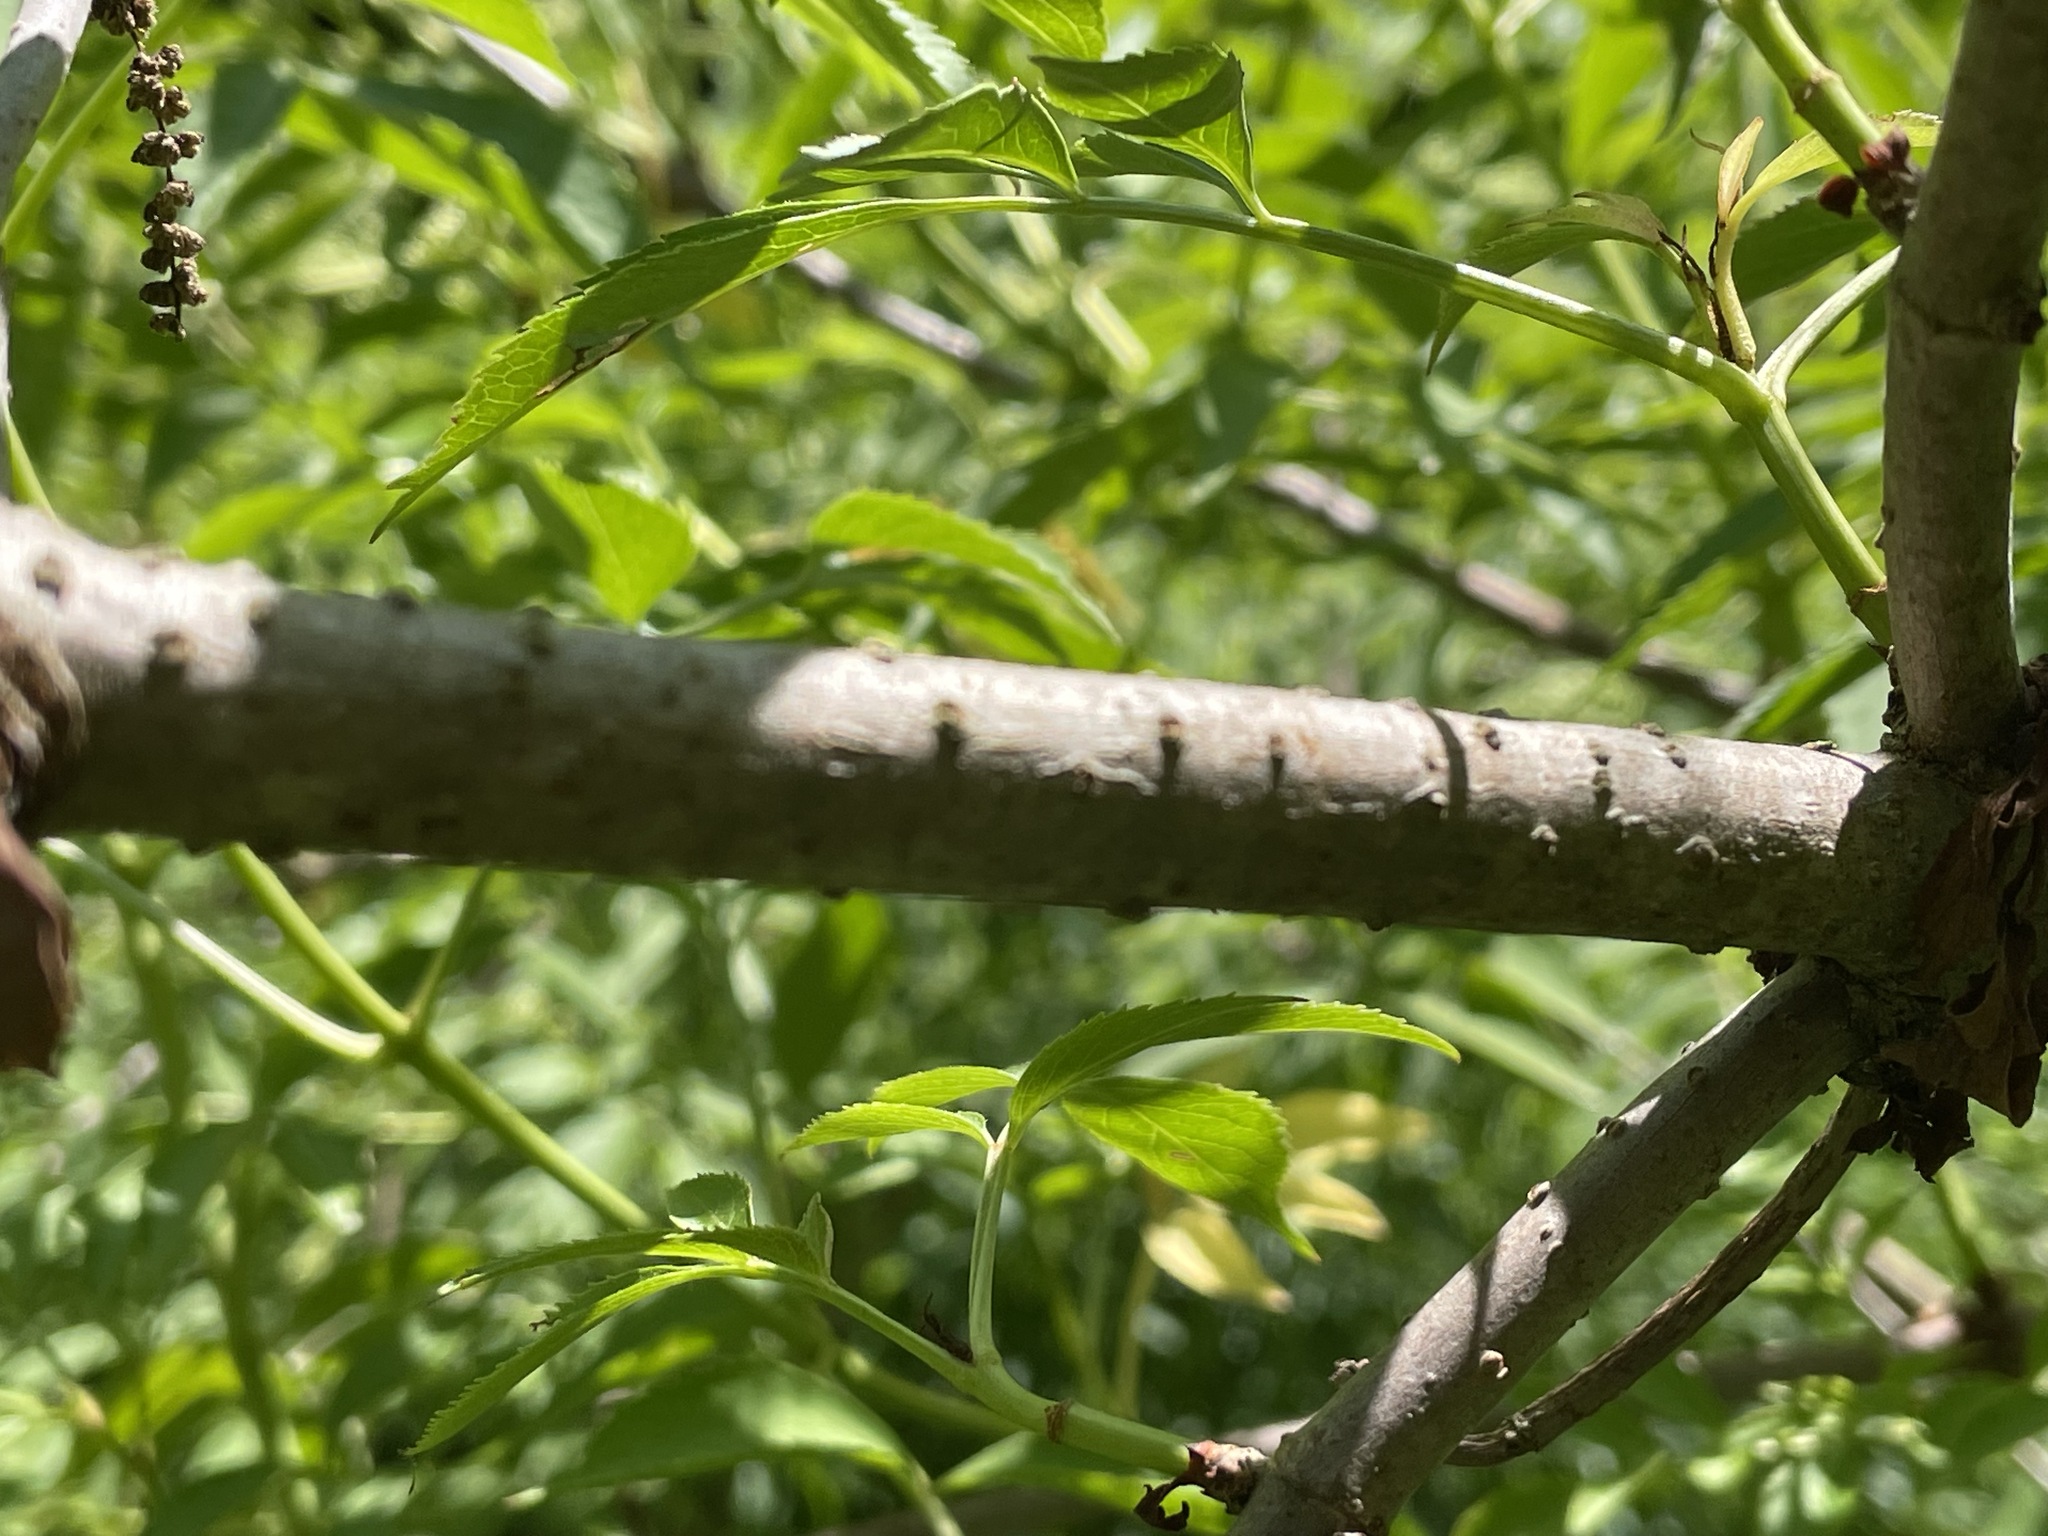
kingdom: Plantae
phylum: Tracheophyta
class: Magnoliopsida
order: Dipsacales
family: Viburnaceae
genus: Sambucus
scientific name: Sambucus canadensis
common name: American elder
